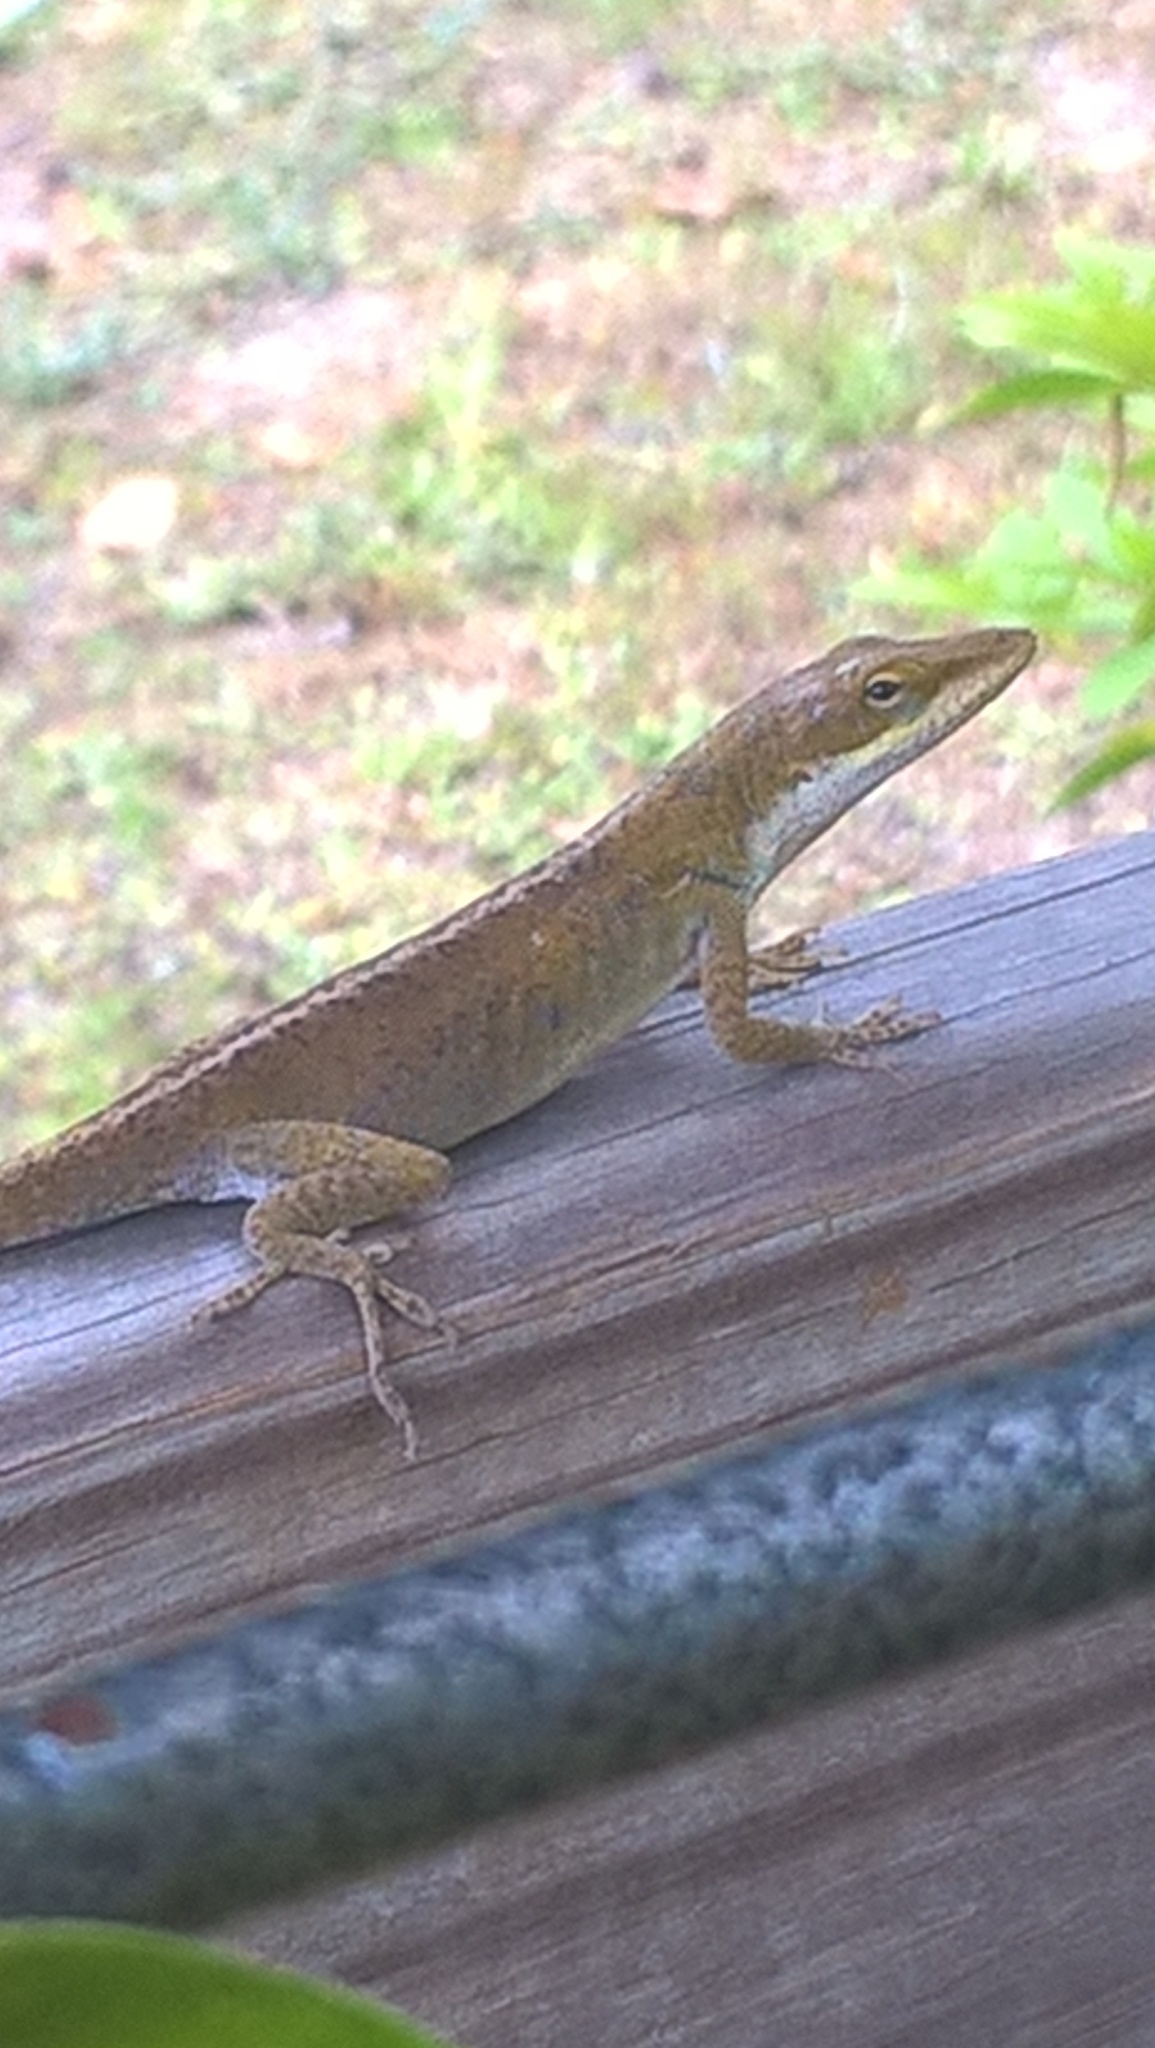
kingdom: Animalia
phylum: Chordata
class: Squamata
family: Dactyloidae
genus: Anolis
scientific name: Anolis carolinensis
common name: Green anole
